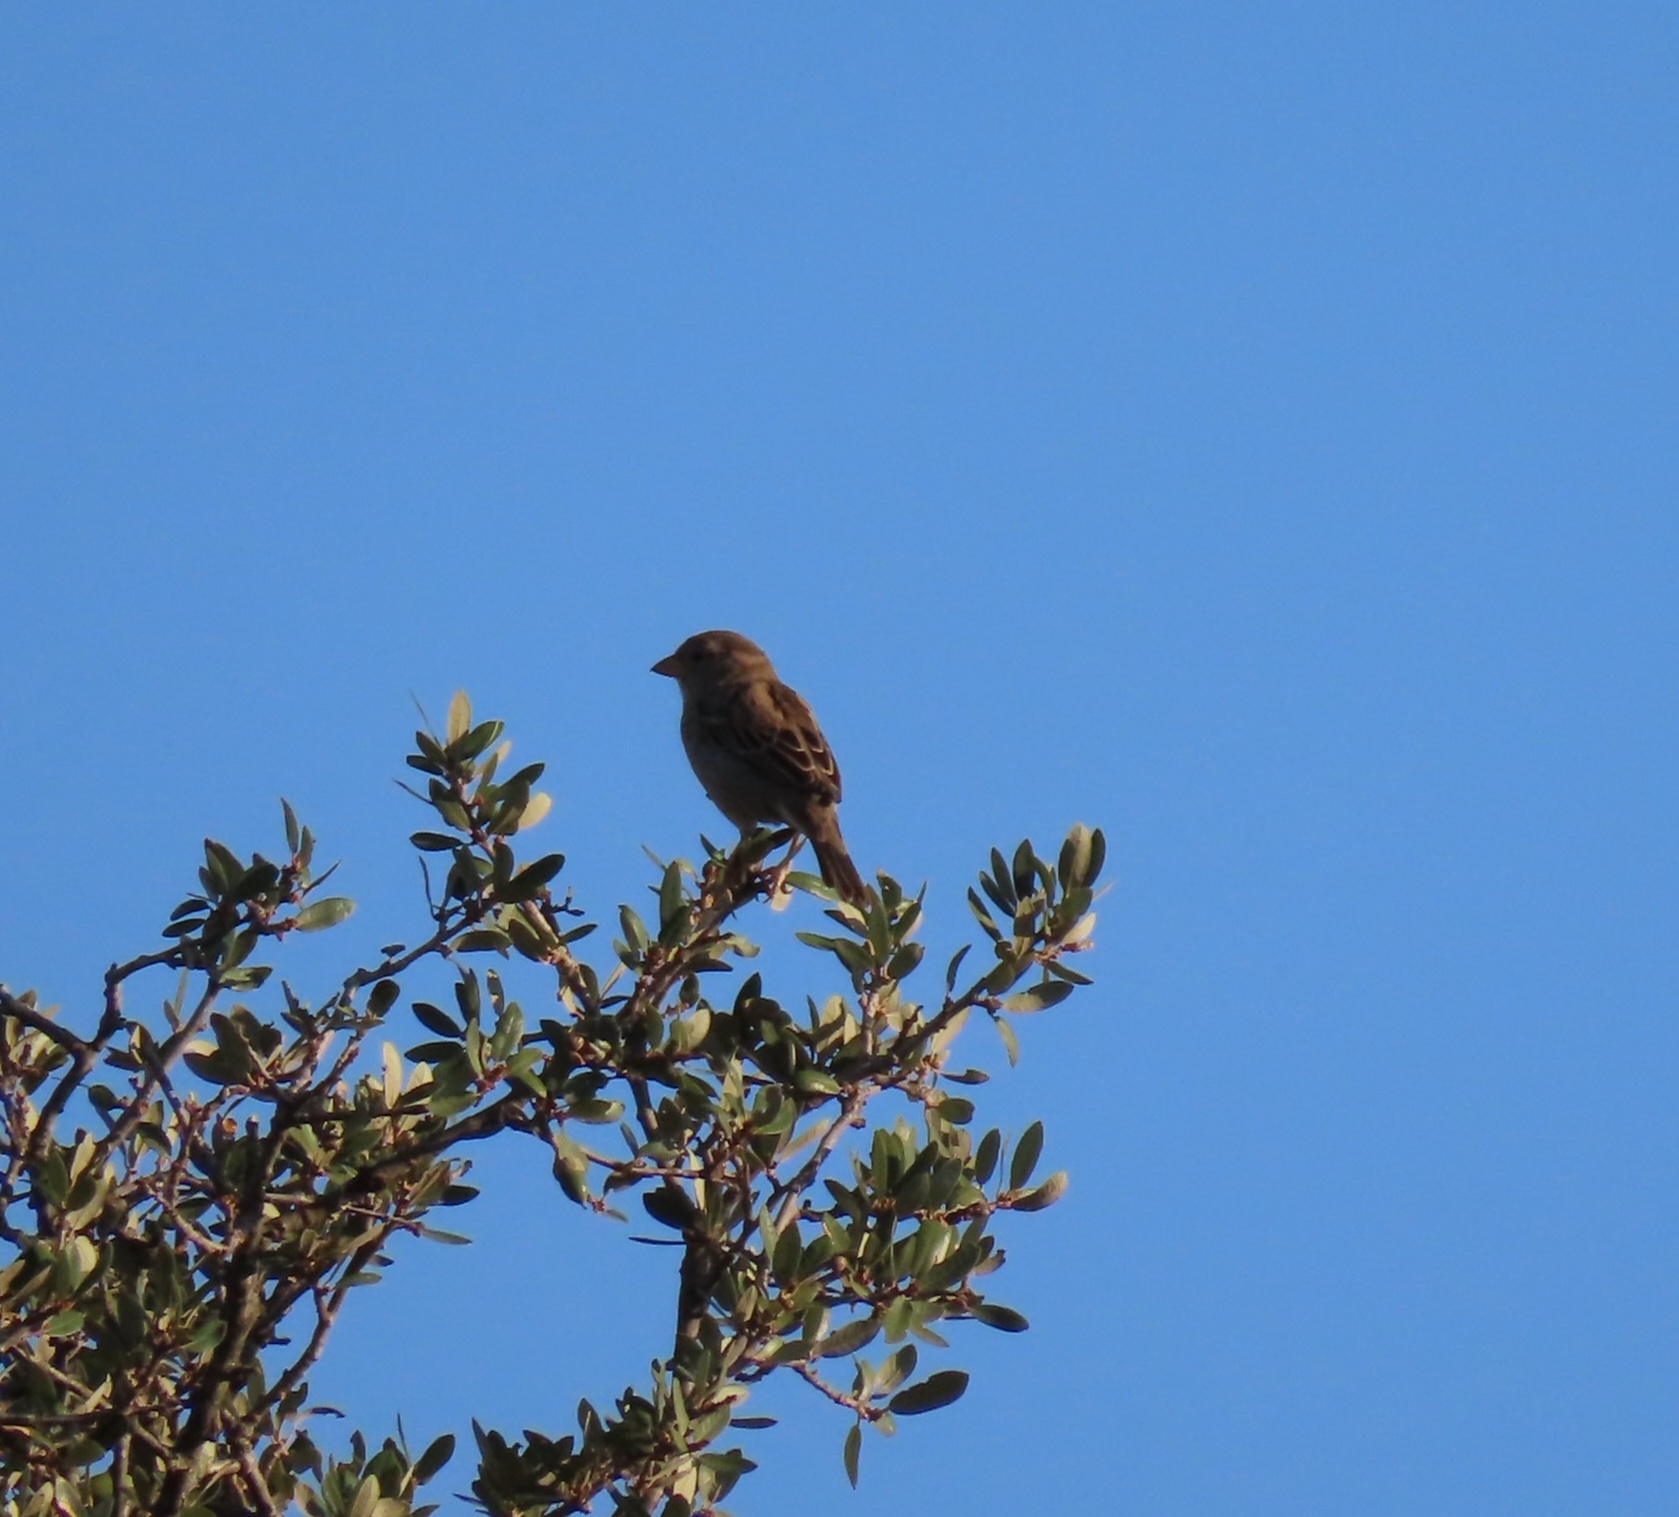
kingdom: Animalia
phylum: Chordata
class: Aves
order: Passeriformes
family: Passeridae
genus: Passer
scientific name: Passer domesticus
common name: House sparrow
